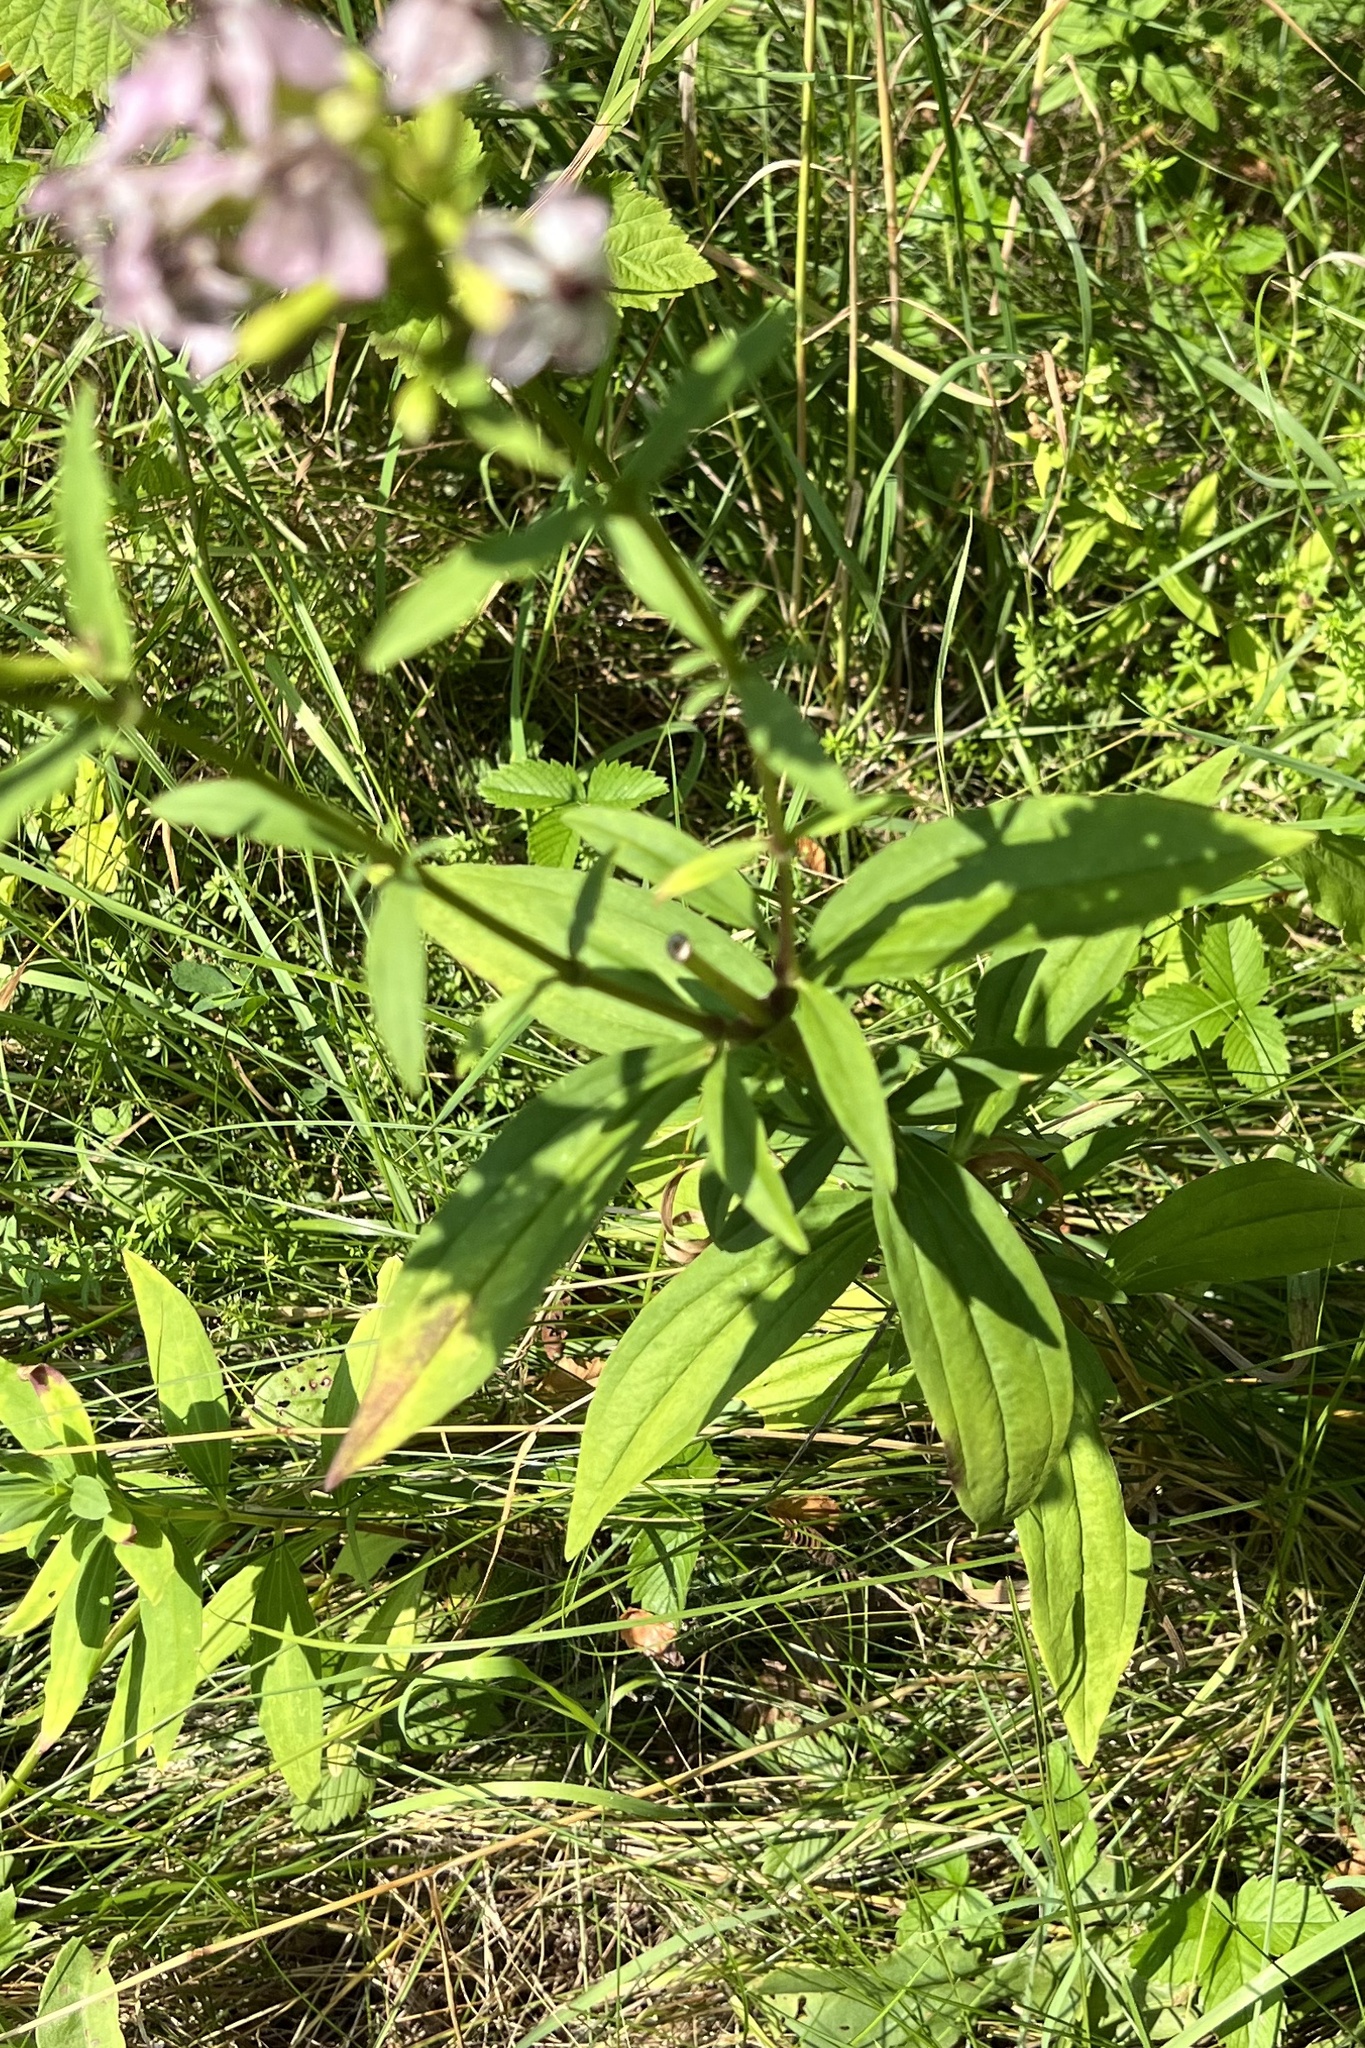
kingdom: Plantae
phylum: Tracheophyta
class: Magnoliopsida
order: Caryophyllales
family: Caryophyllaceae
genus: Saponaria
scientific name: Saponaria officinalis
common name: Soapwort
